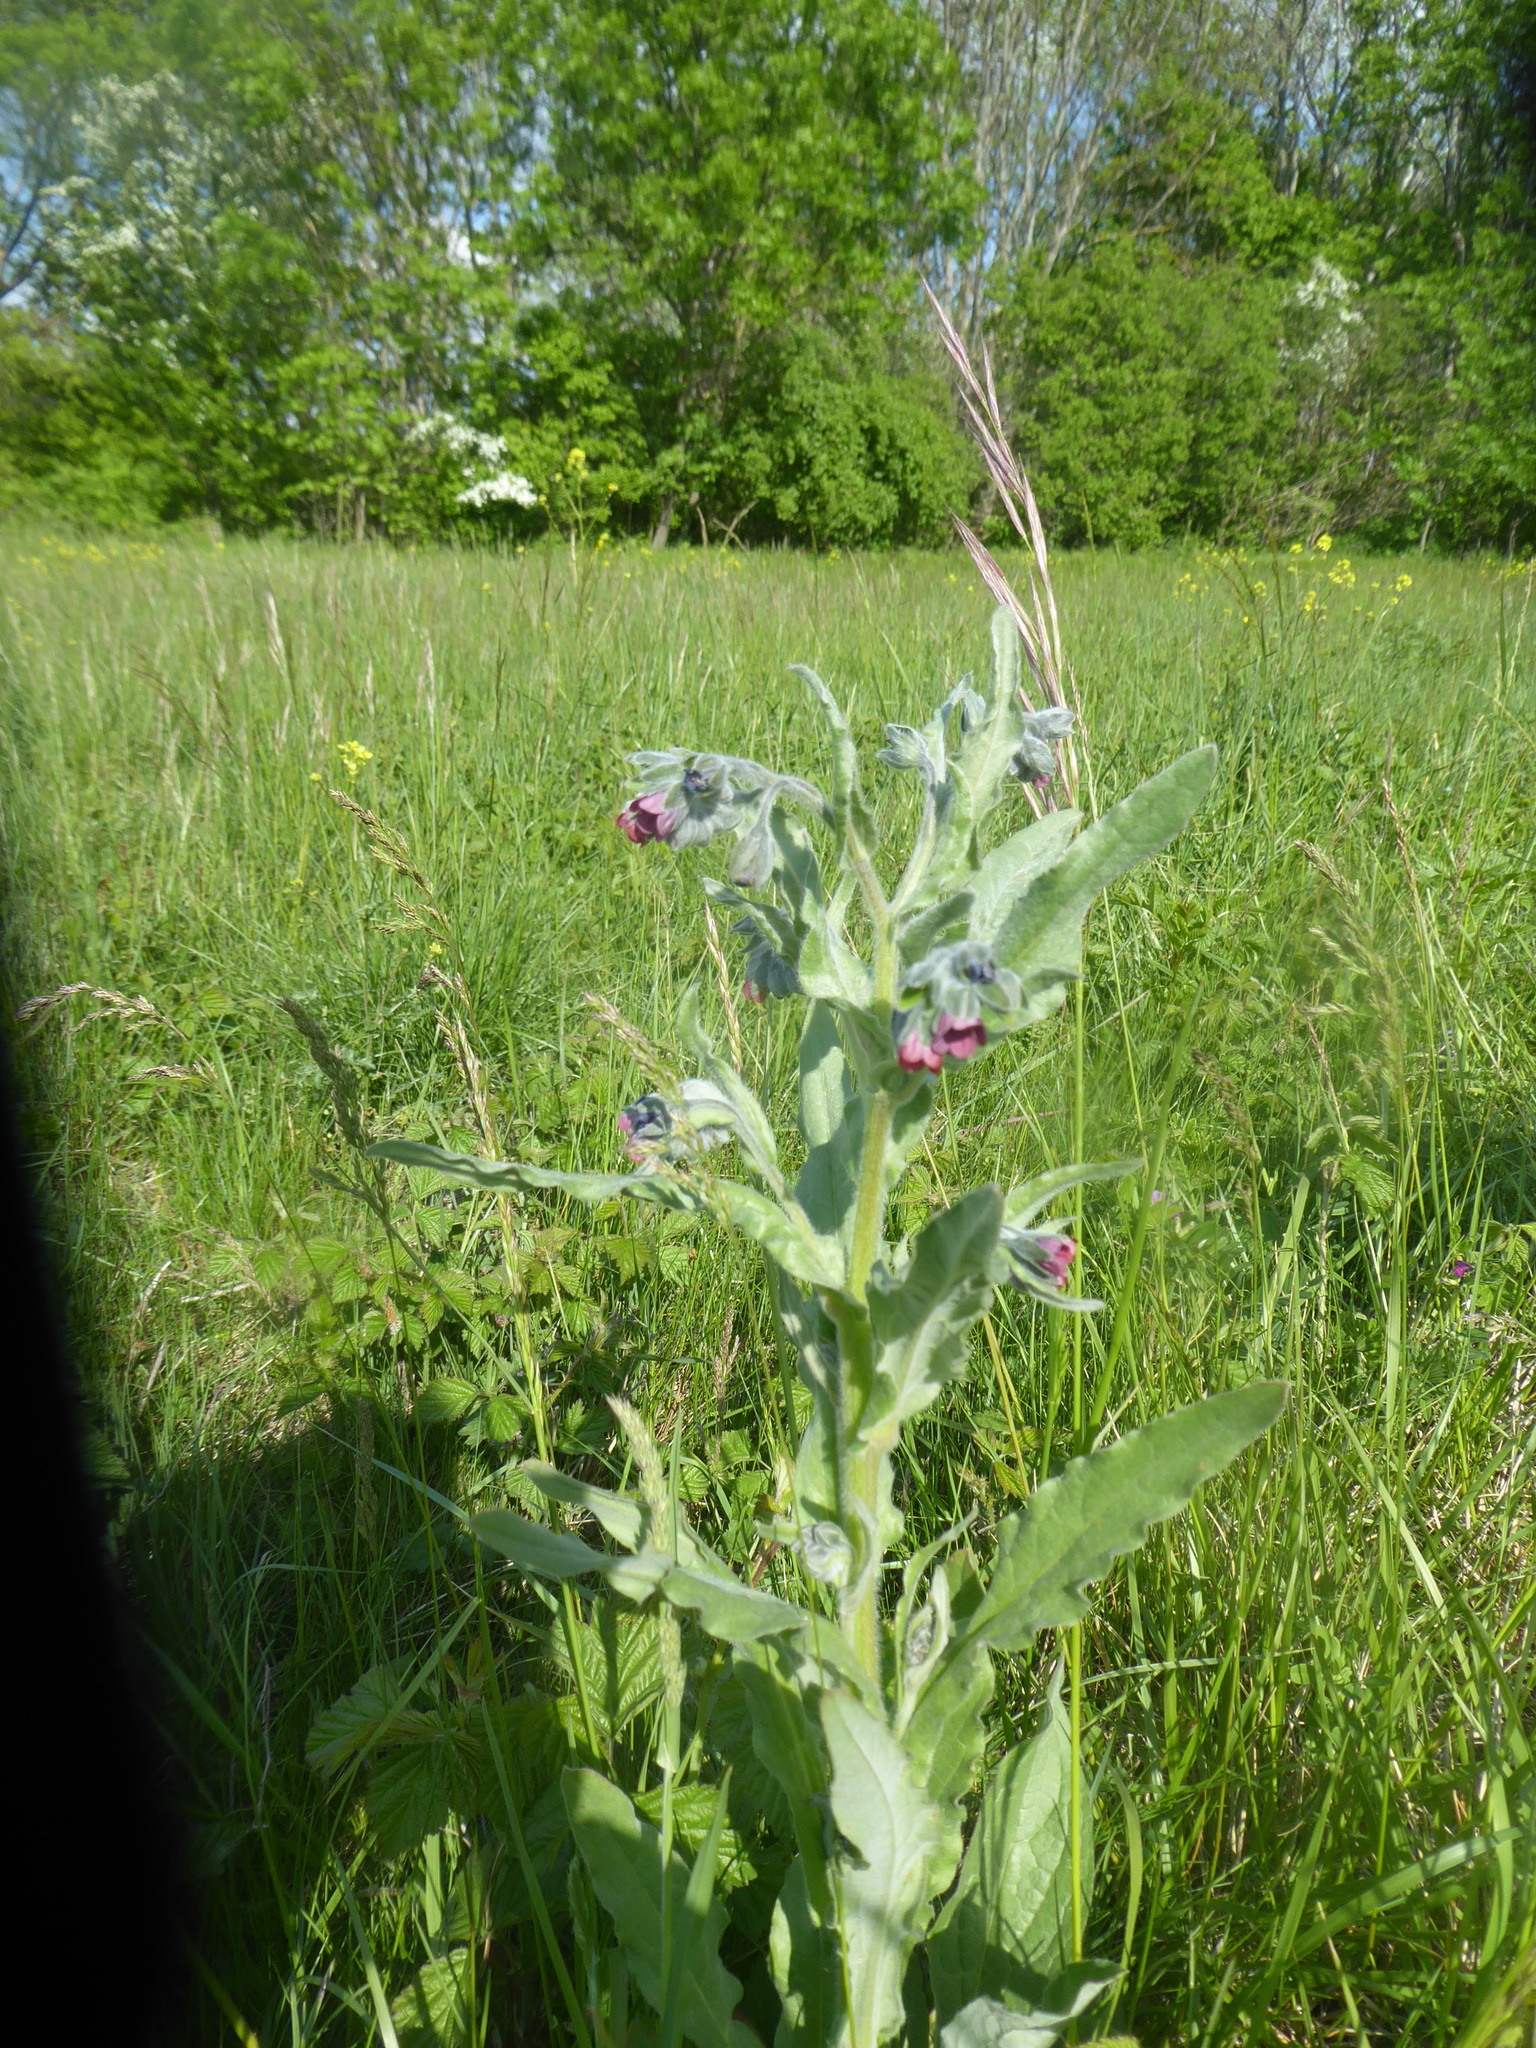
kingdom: Plantae
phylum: Tracheophyta
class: Magnoliopsida
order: Boraginales
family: Boraginaceae
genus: Cynoglossum
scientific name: Cynoglossum officinale
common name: Hound's-tongue
